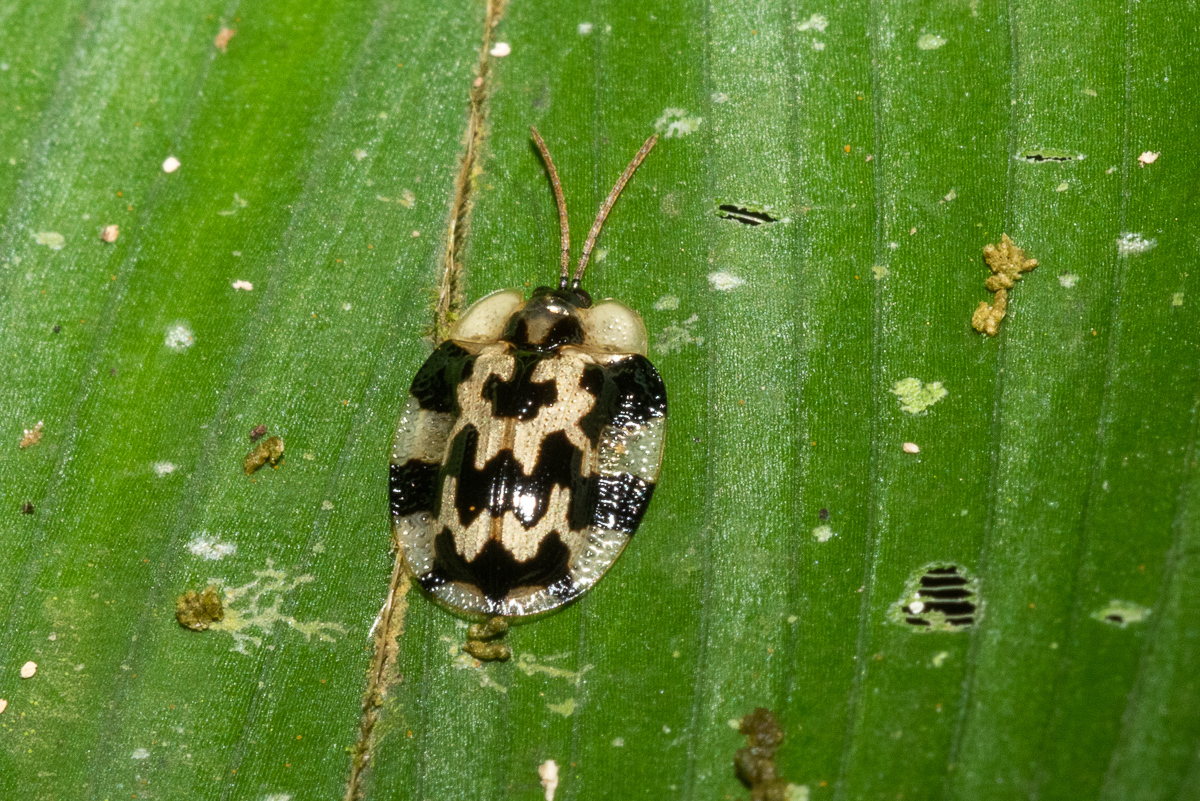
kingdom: Animalia
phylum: Arthropoda
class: Insecta
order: Coleoptera
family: Chrysomelidae
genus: Aslamidium
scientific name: Aslamidium capense
